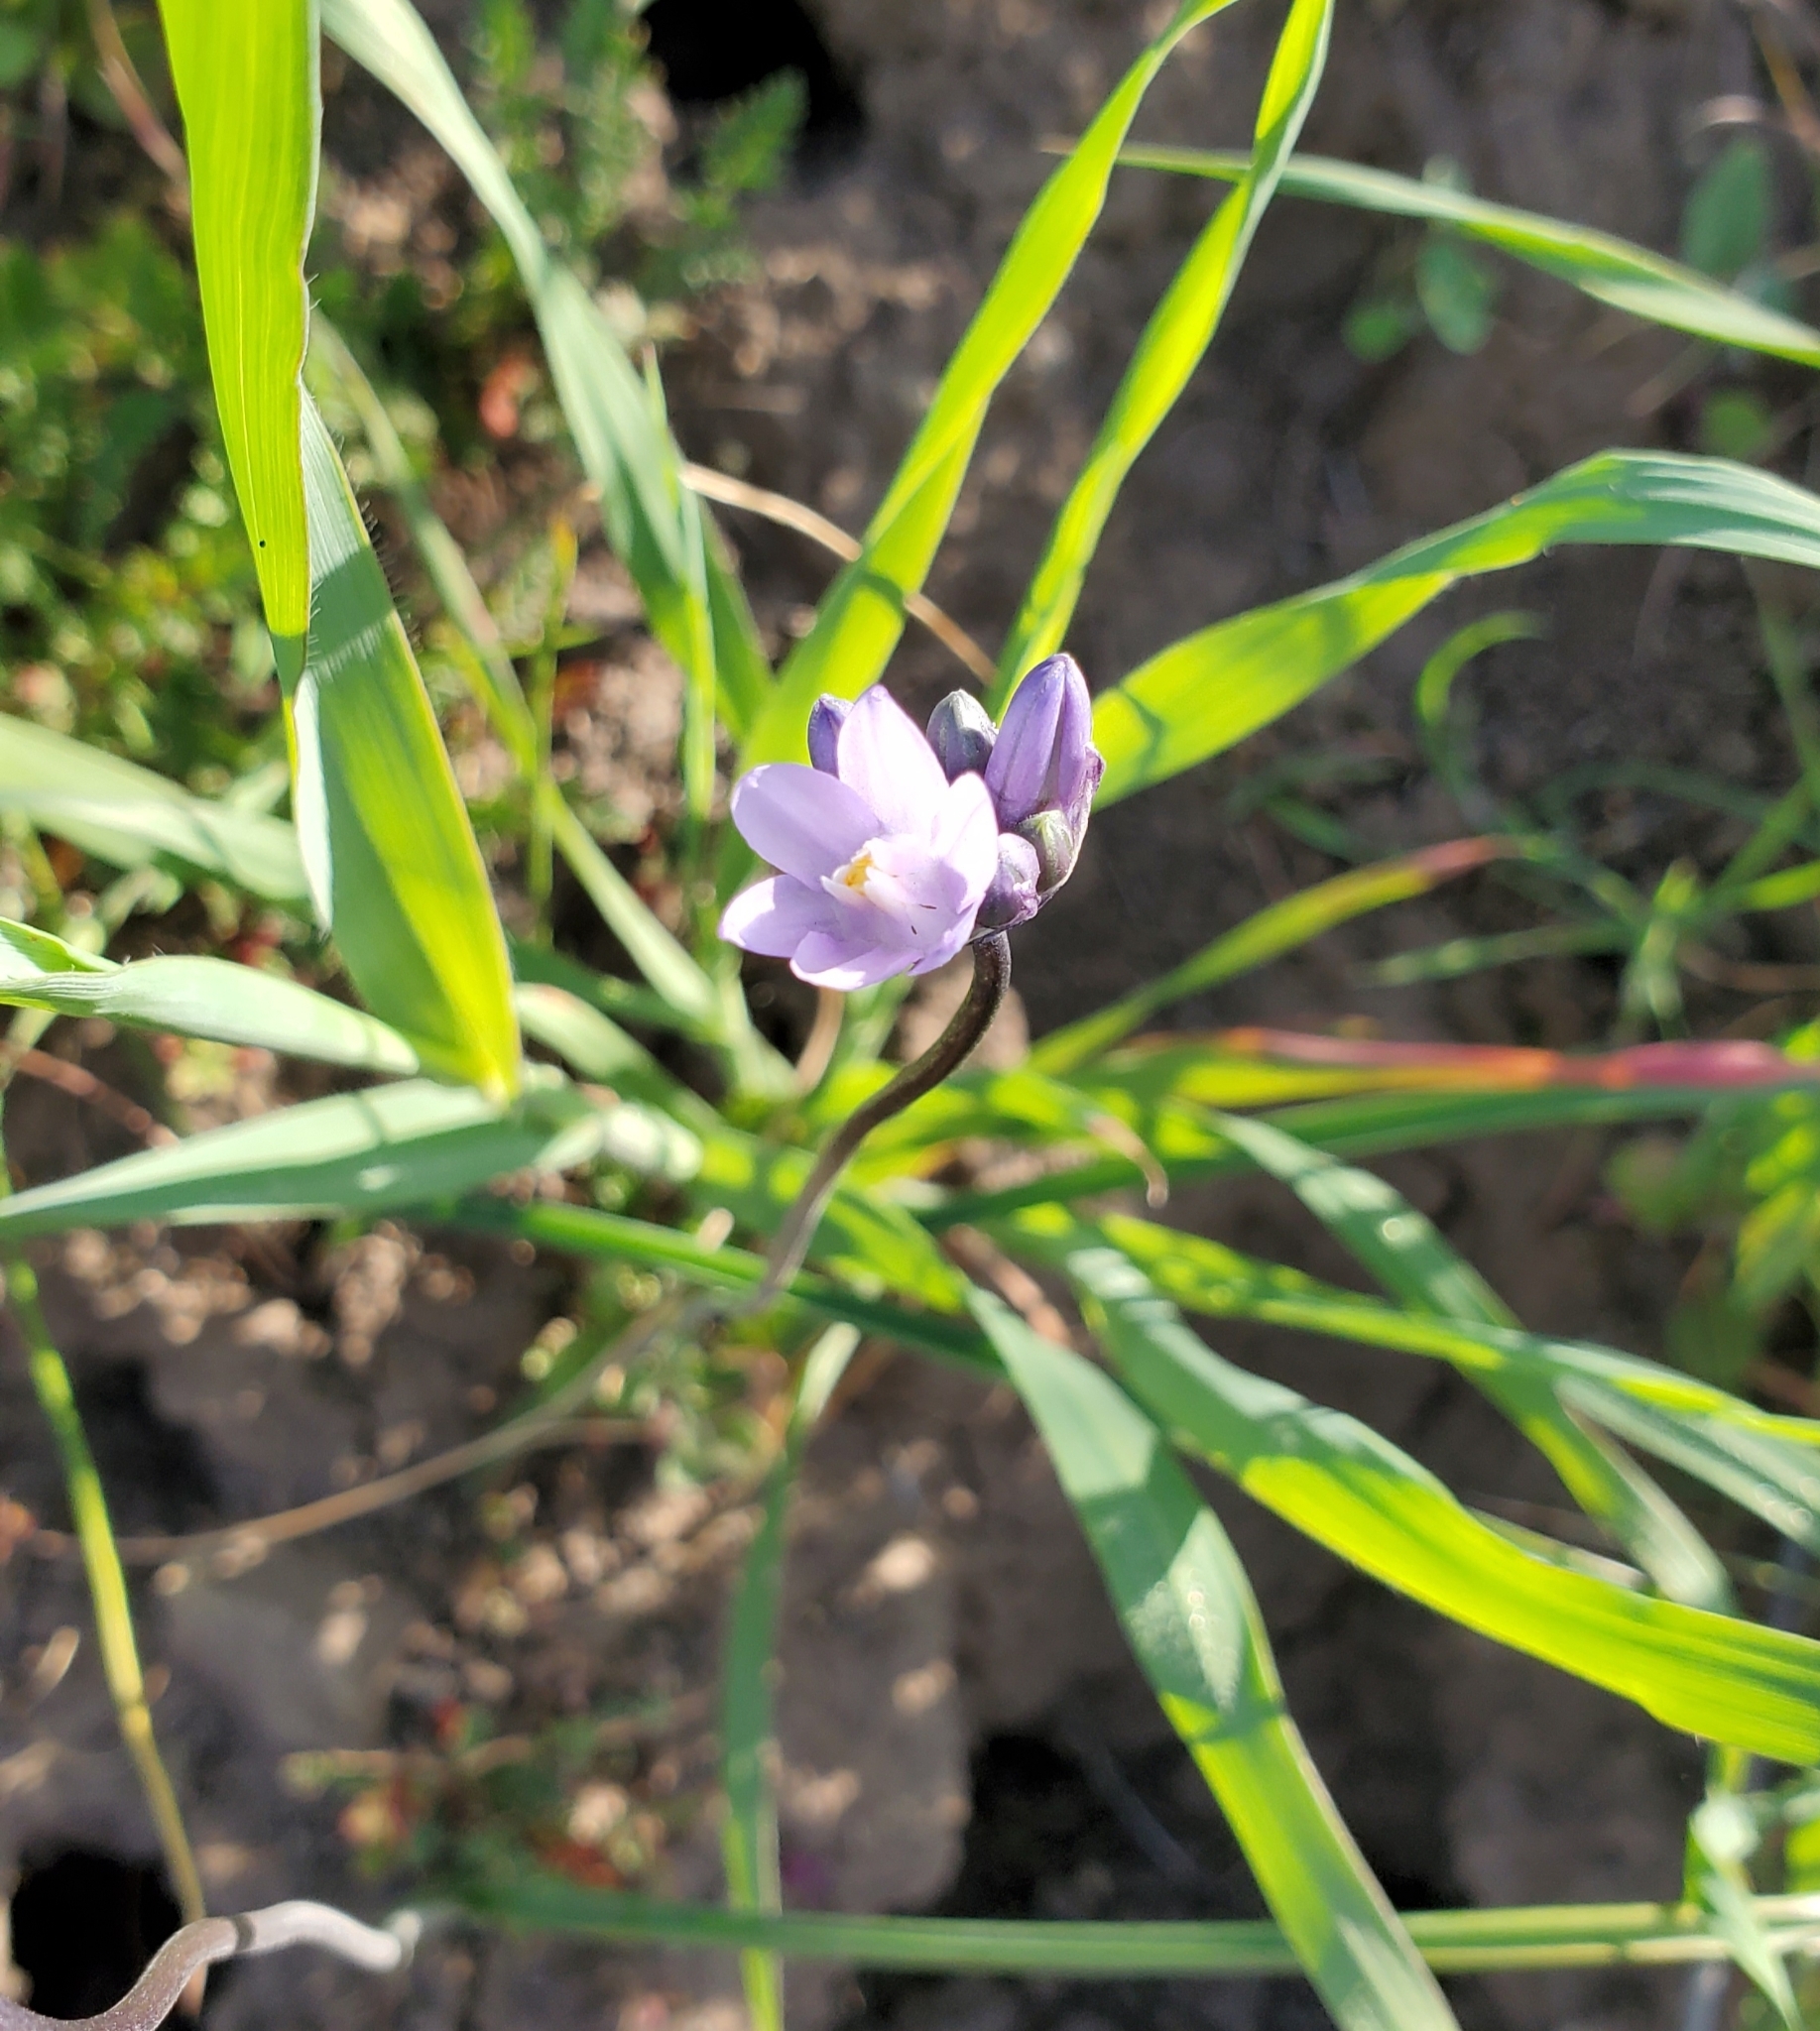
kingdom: Plantae
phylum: Tracheophyta
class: Liliopsida
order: Asparagales
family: Asparagaceae
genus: Dipterostemon
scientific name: Dipterostemon capitatus
